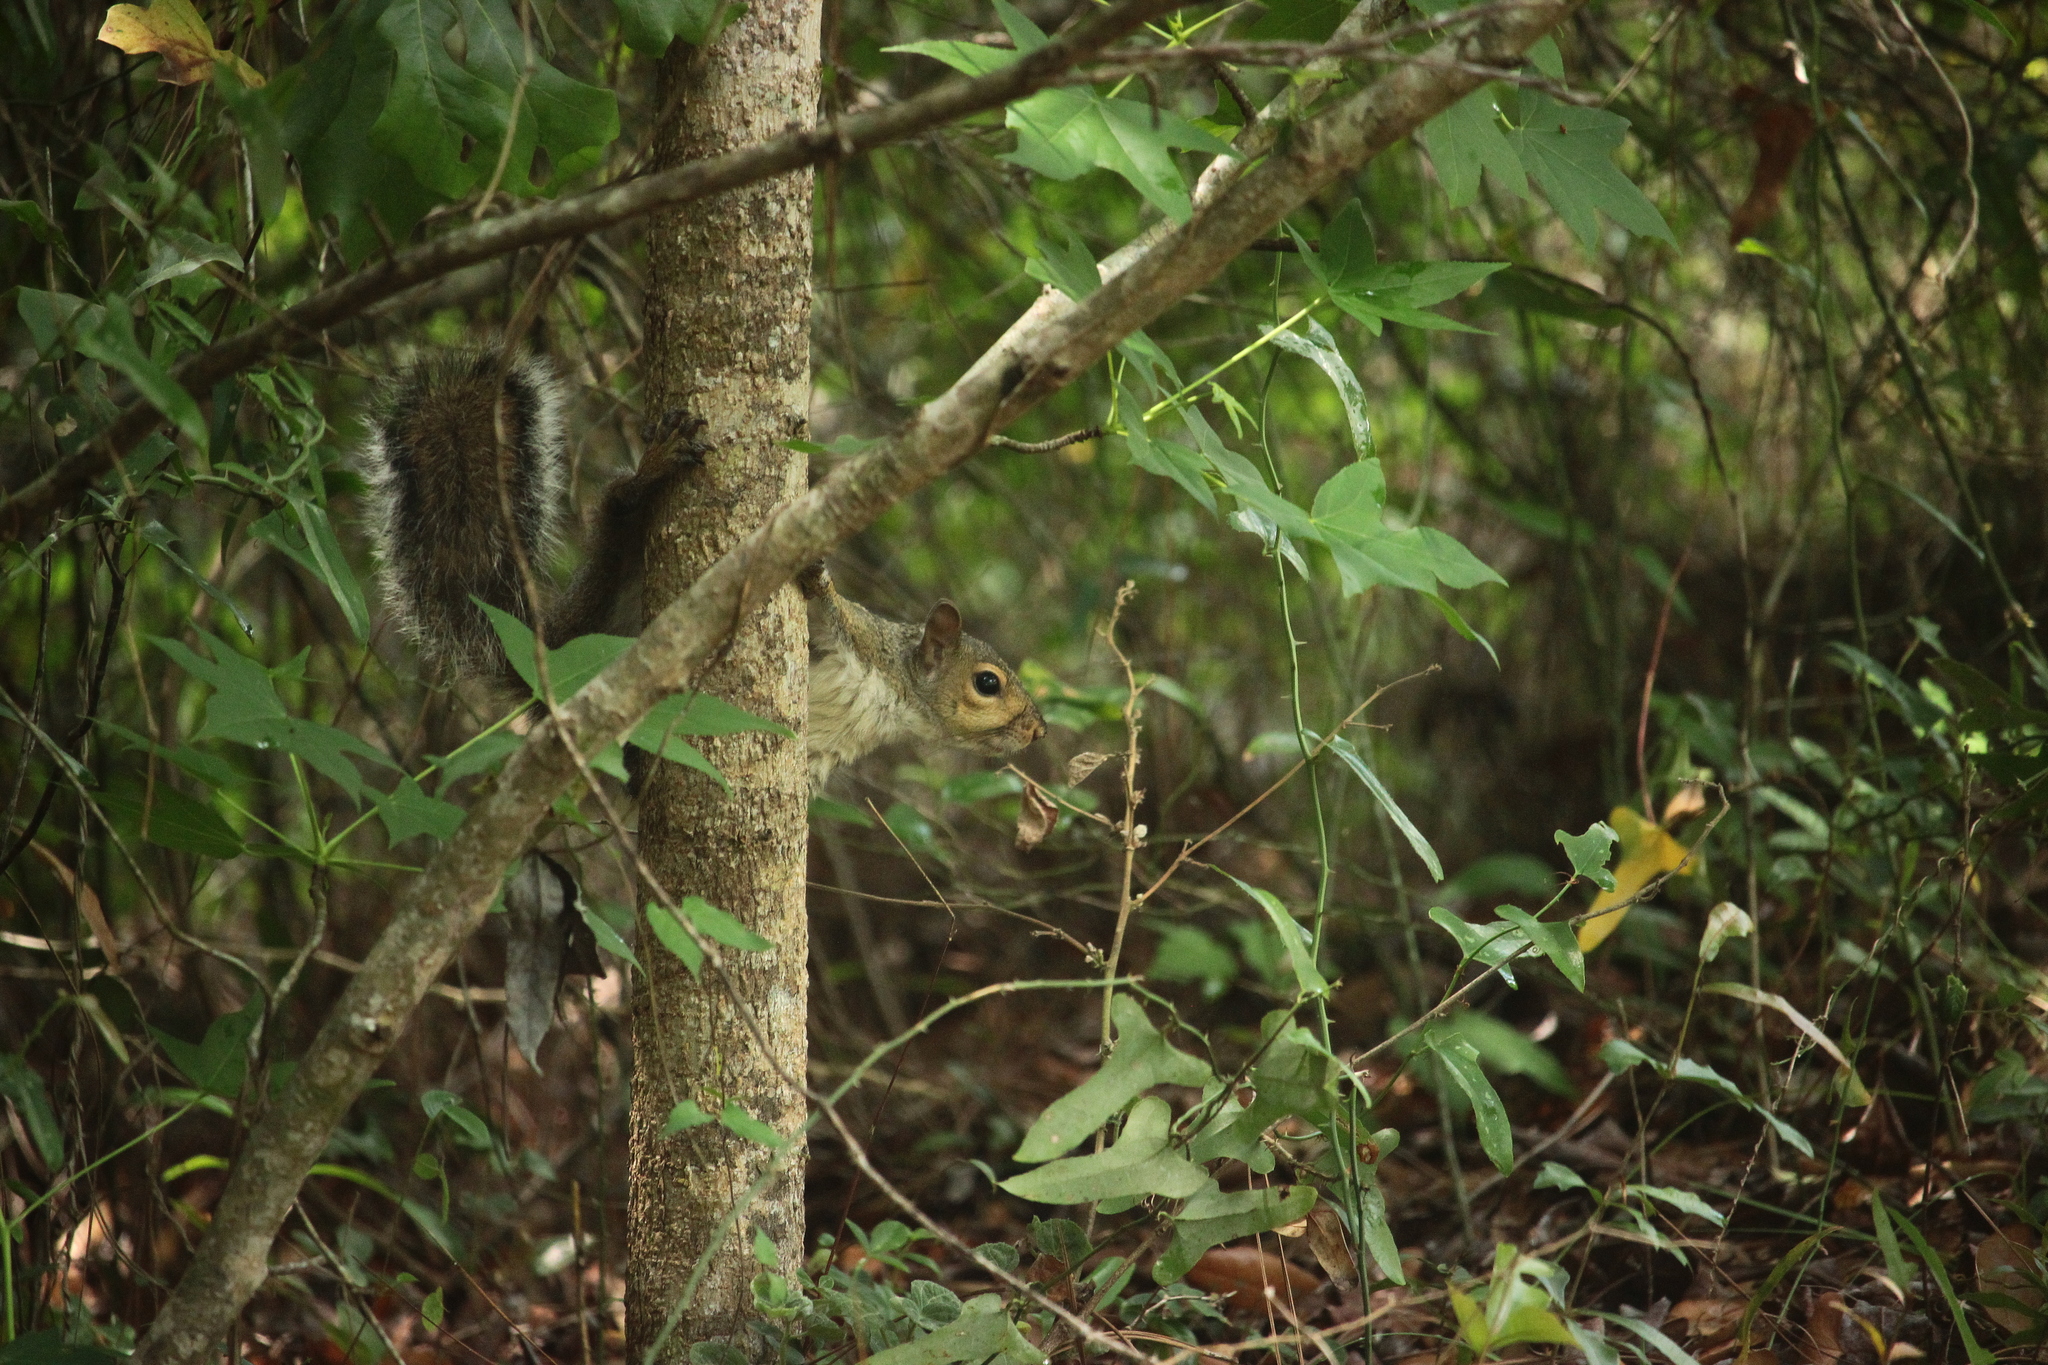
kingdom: Animalia
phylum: Chordata
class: Mammalia
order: Rodentia
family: Sciuridae
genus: Sciurus
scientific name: Sciurus carolinensis
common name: Eastern gray squirrel
